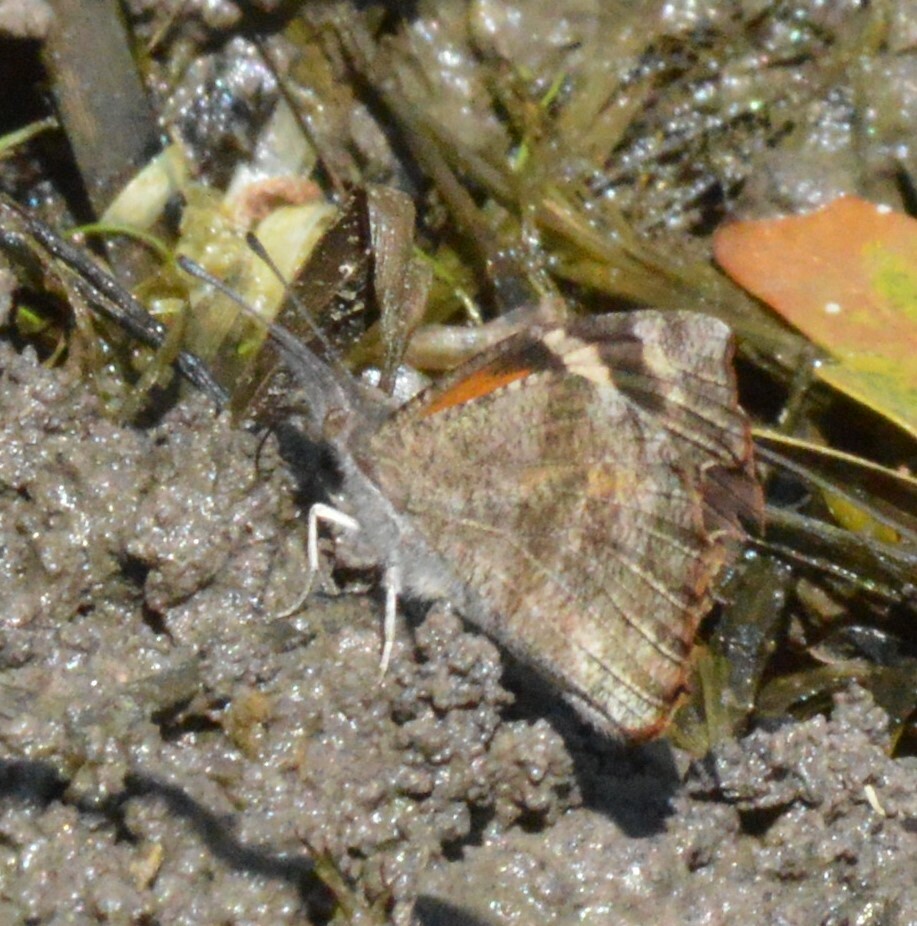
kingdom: Animalia
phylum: Arthropoda
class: Insecta
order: Lepidoptera
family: Nymphalidae
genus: Libytheana
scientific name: Libytheana carinenta
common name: American snout
